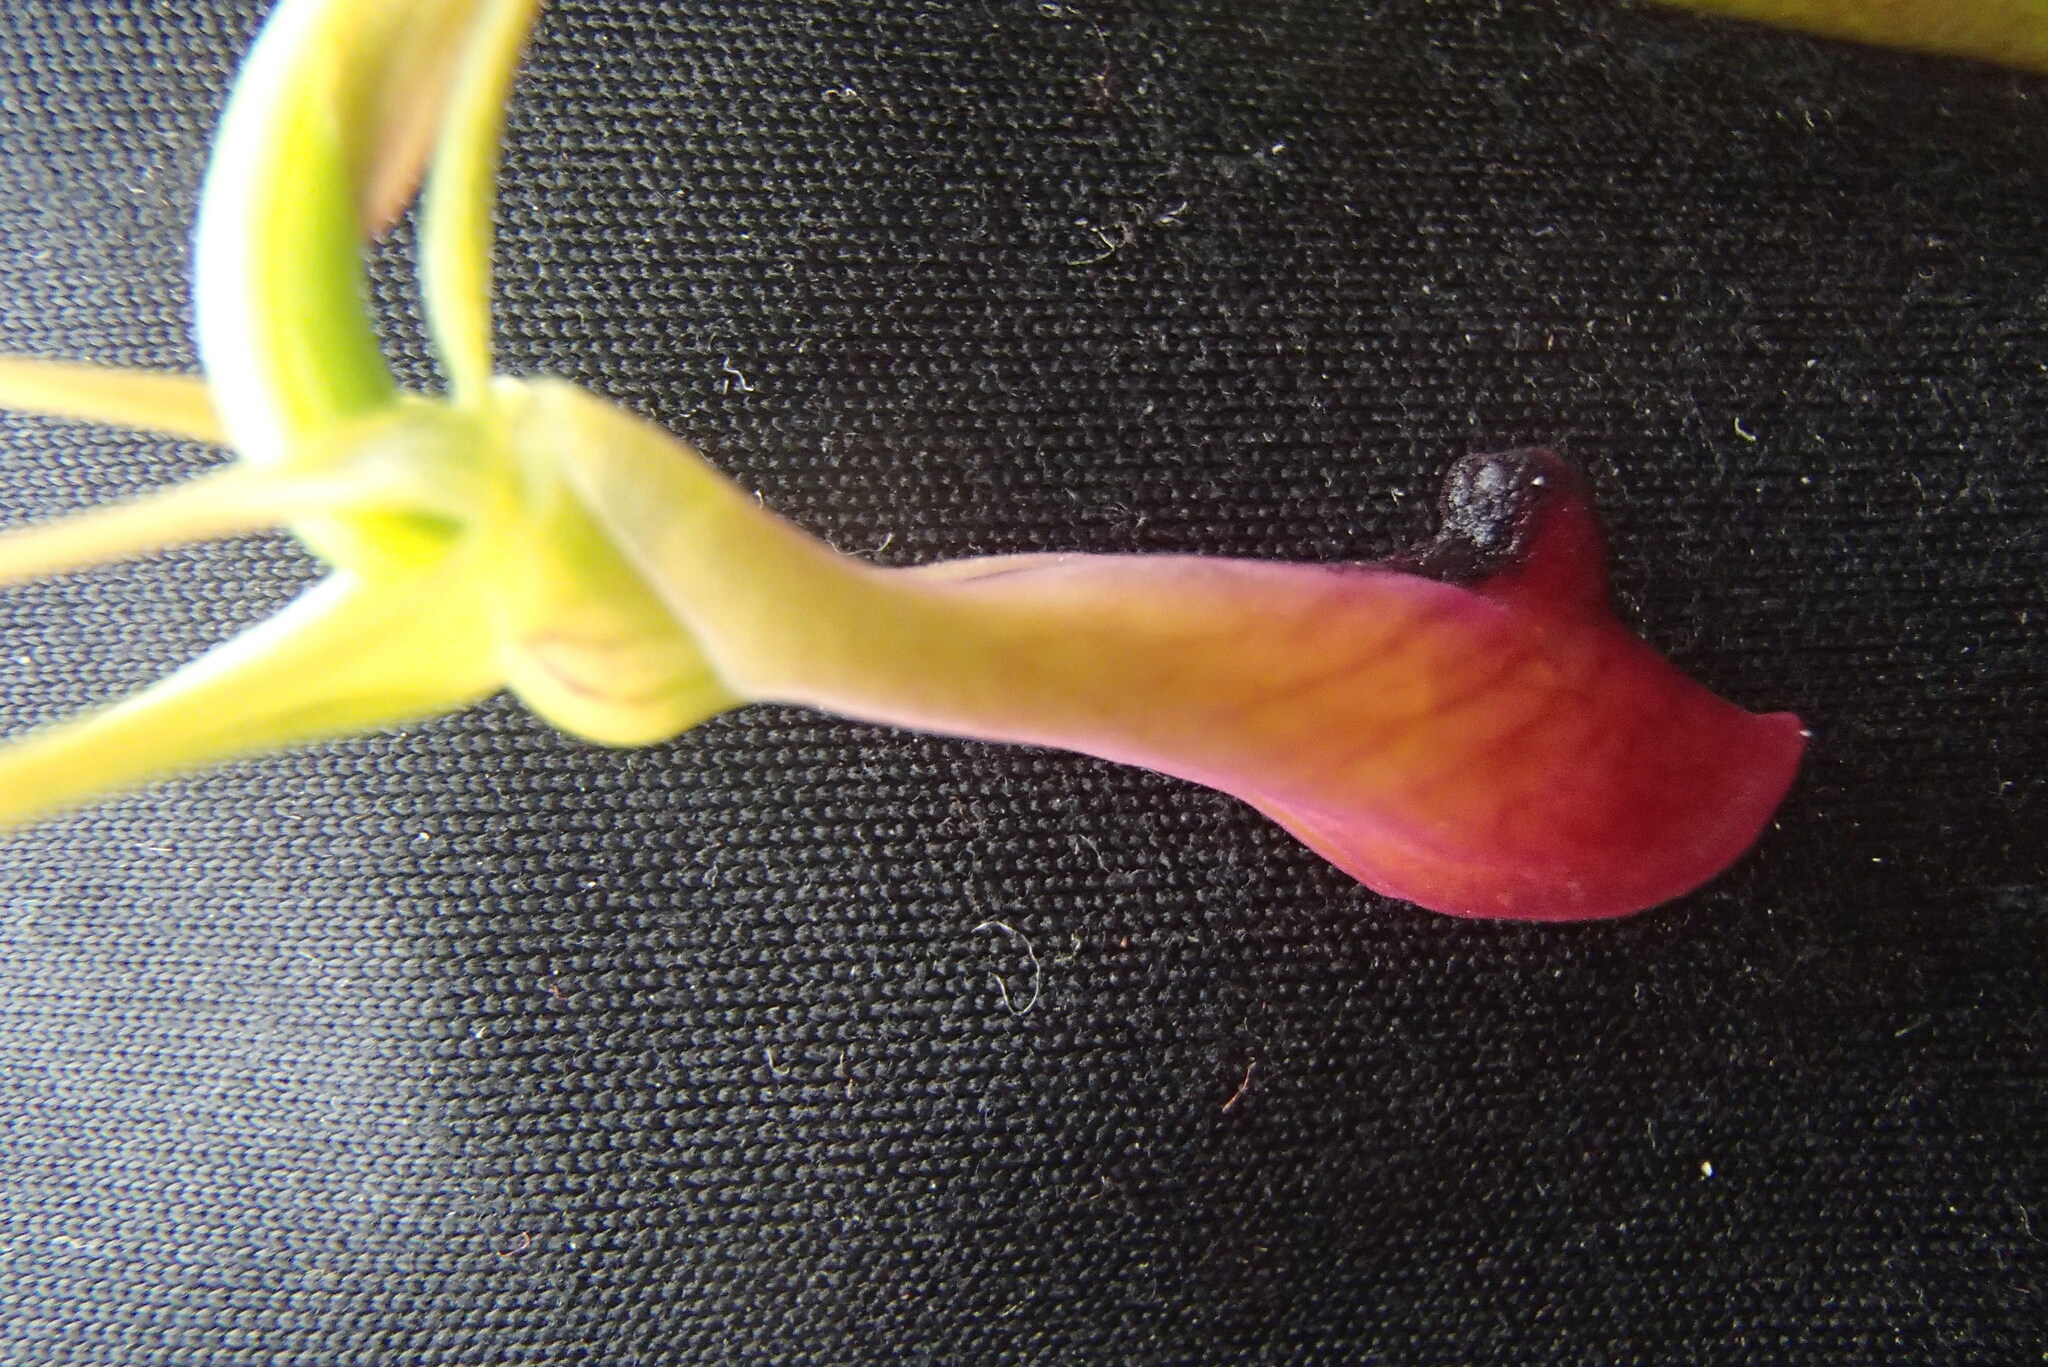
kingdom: Plantae
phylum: Tracheophyta
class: Liliopsida
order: Asparagales
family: Orchidaceae
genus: Cryptostylis
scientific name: Cryptostylis subulata
